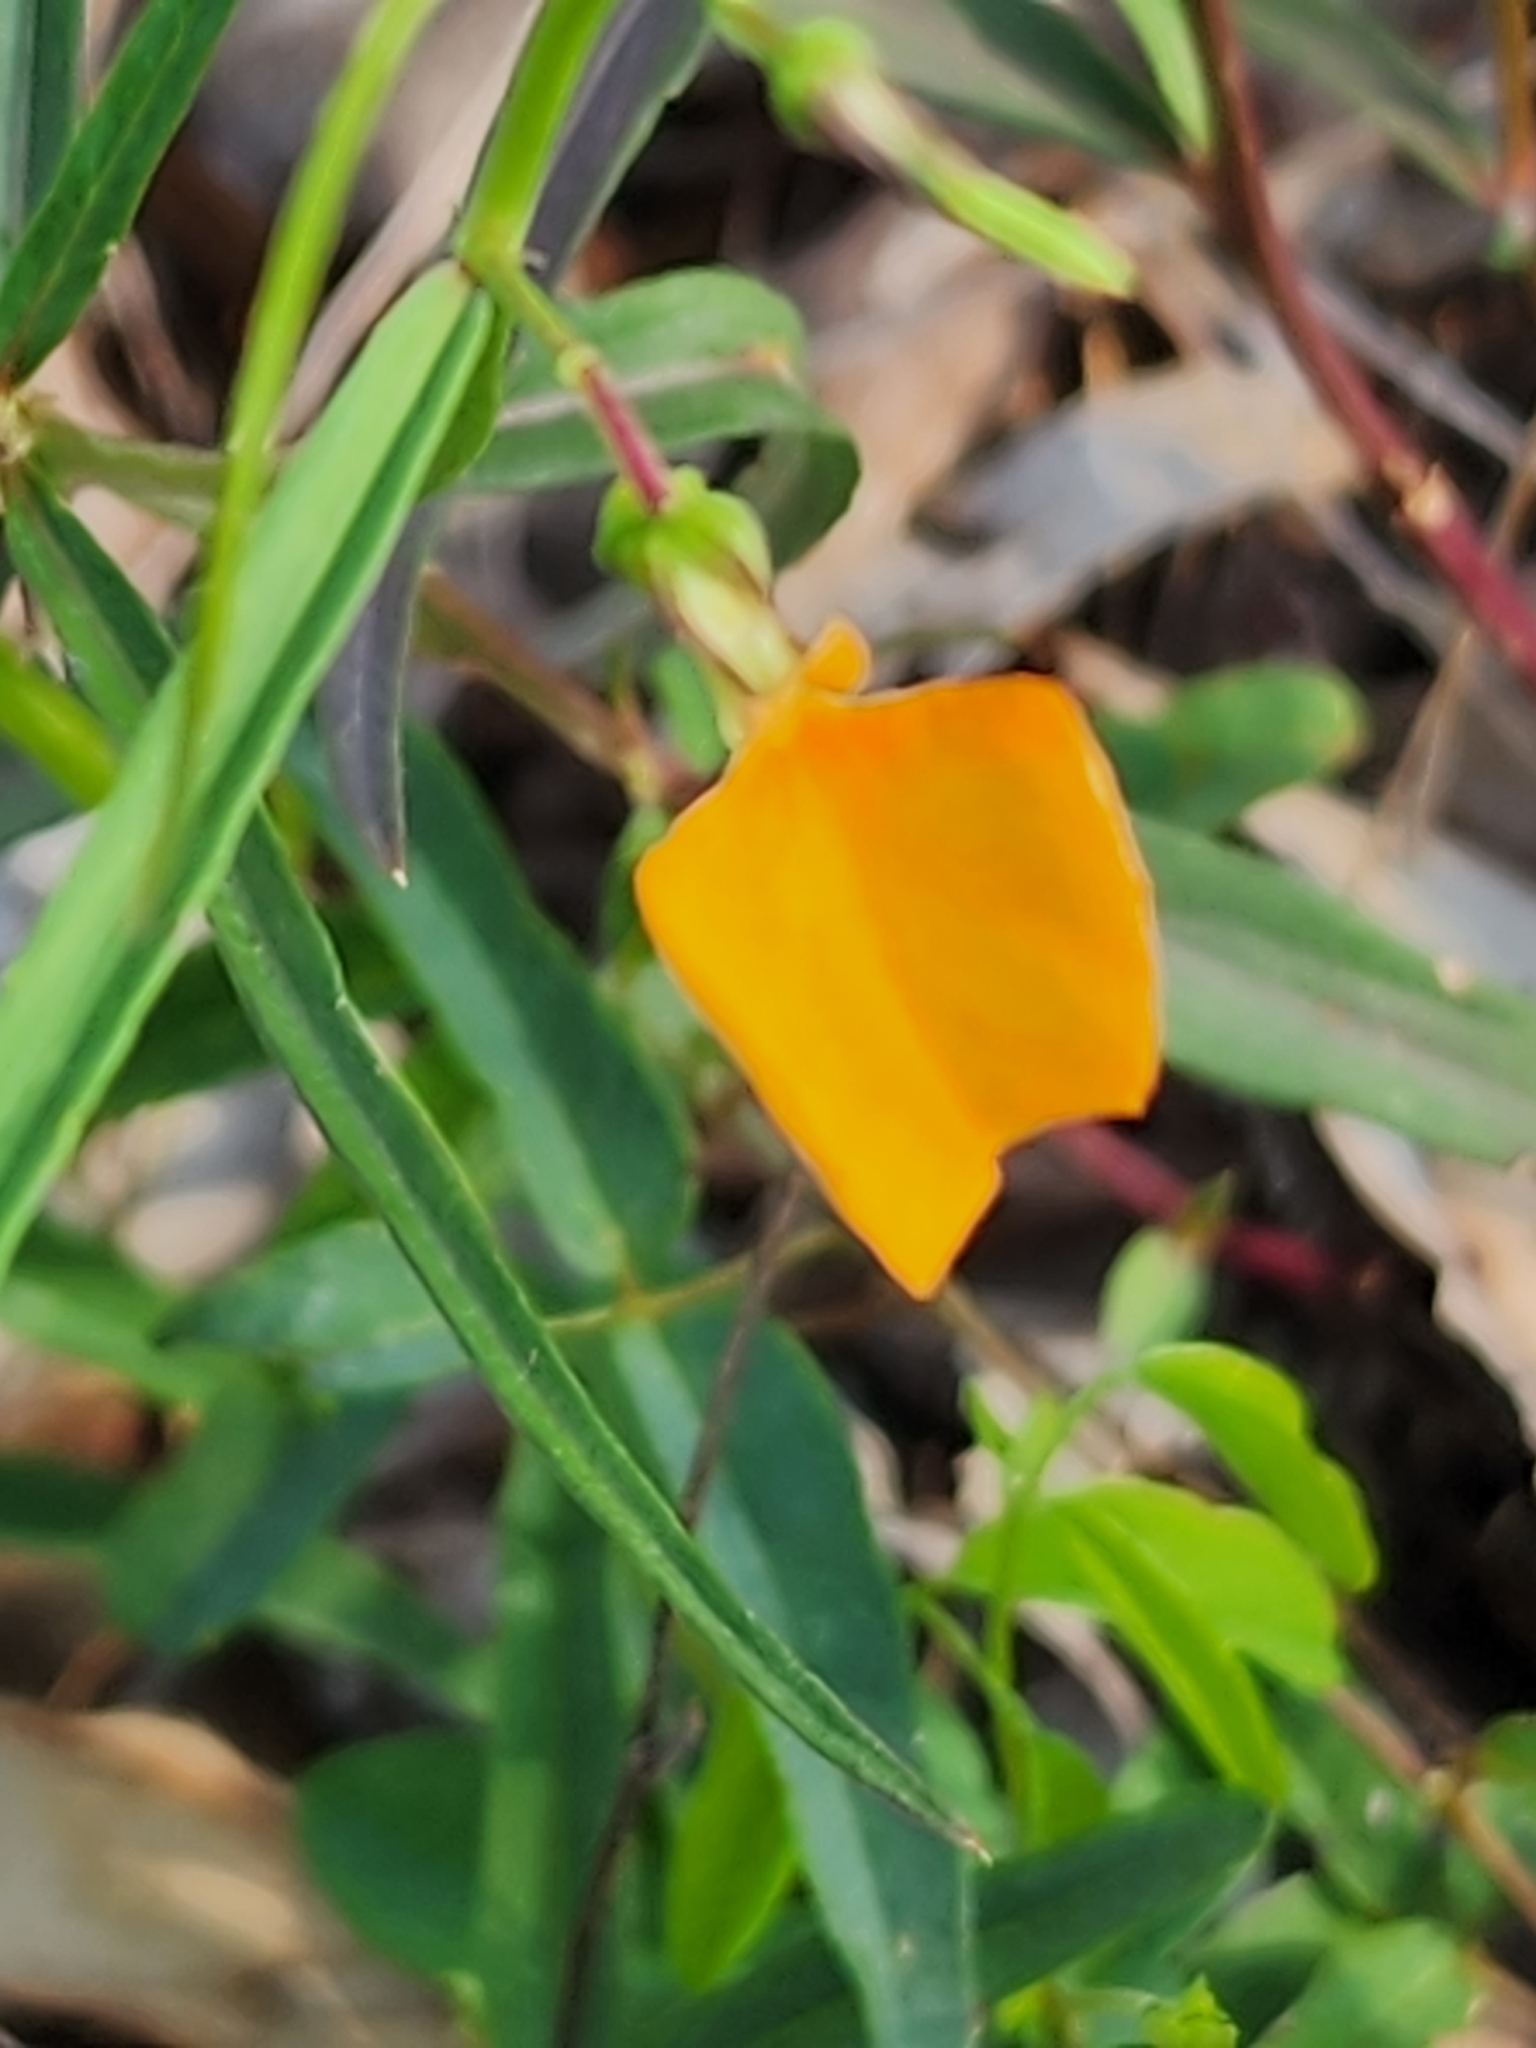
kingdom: Plantae
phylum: Tracheophyta
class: Magnoliopsida
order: Malpighiales
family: Violaceae
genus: Pigea
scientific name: Pigea stellarioides
